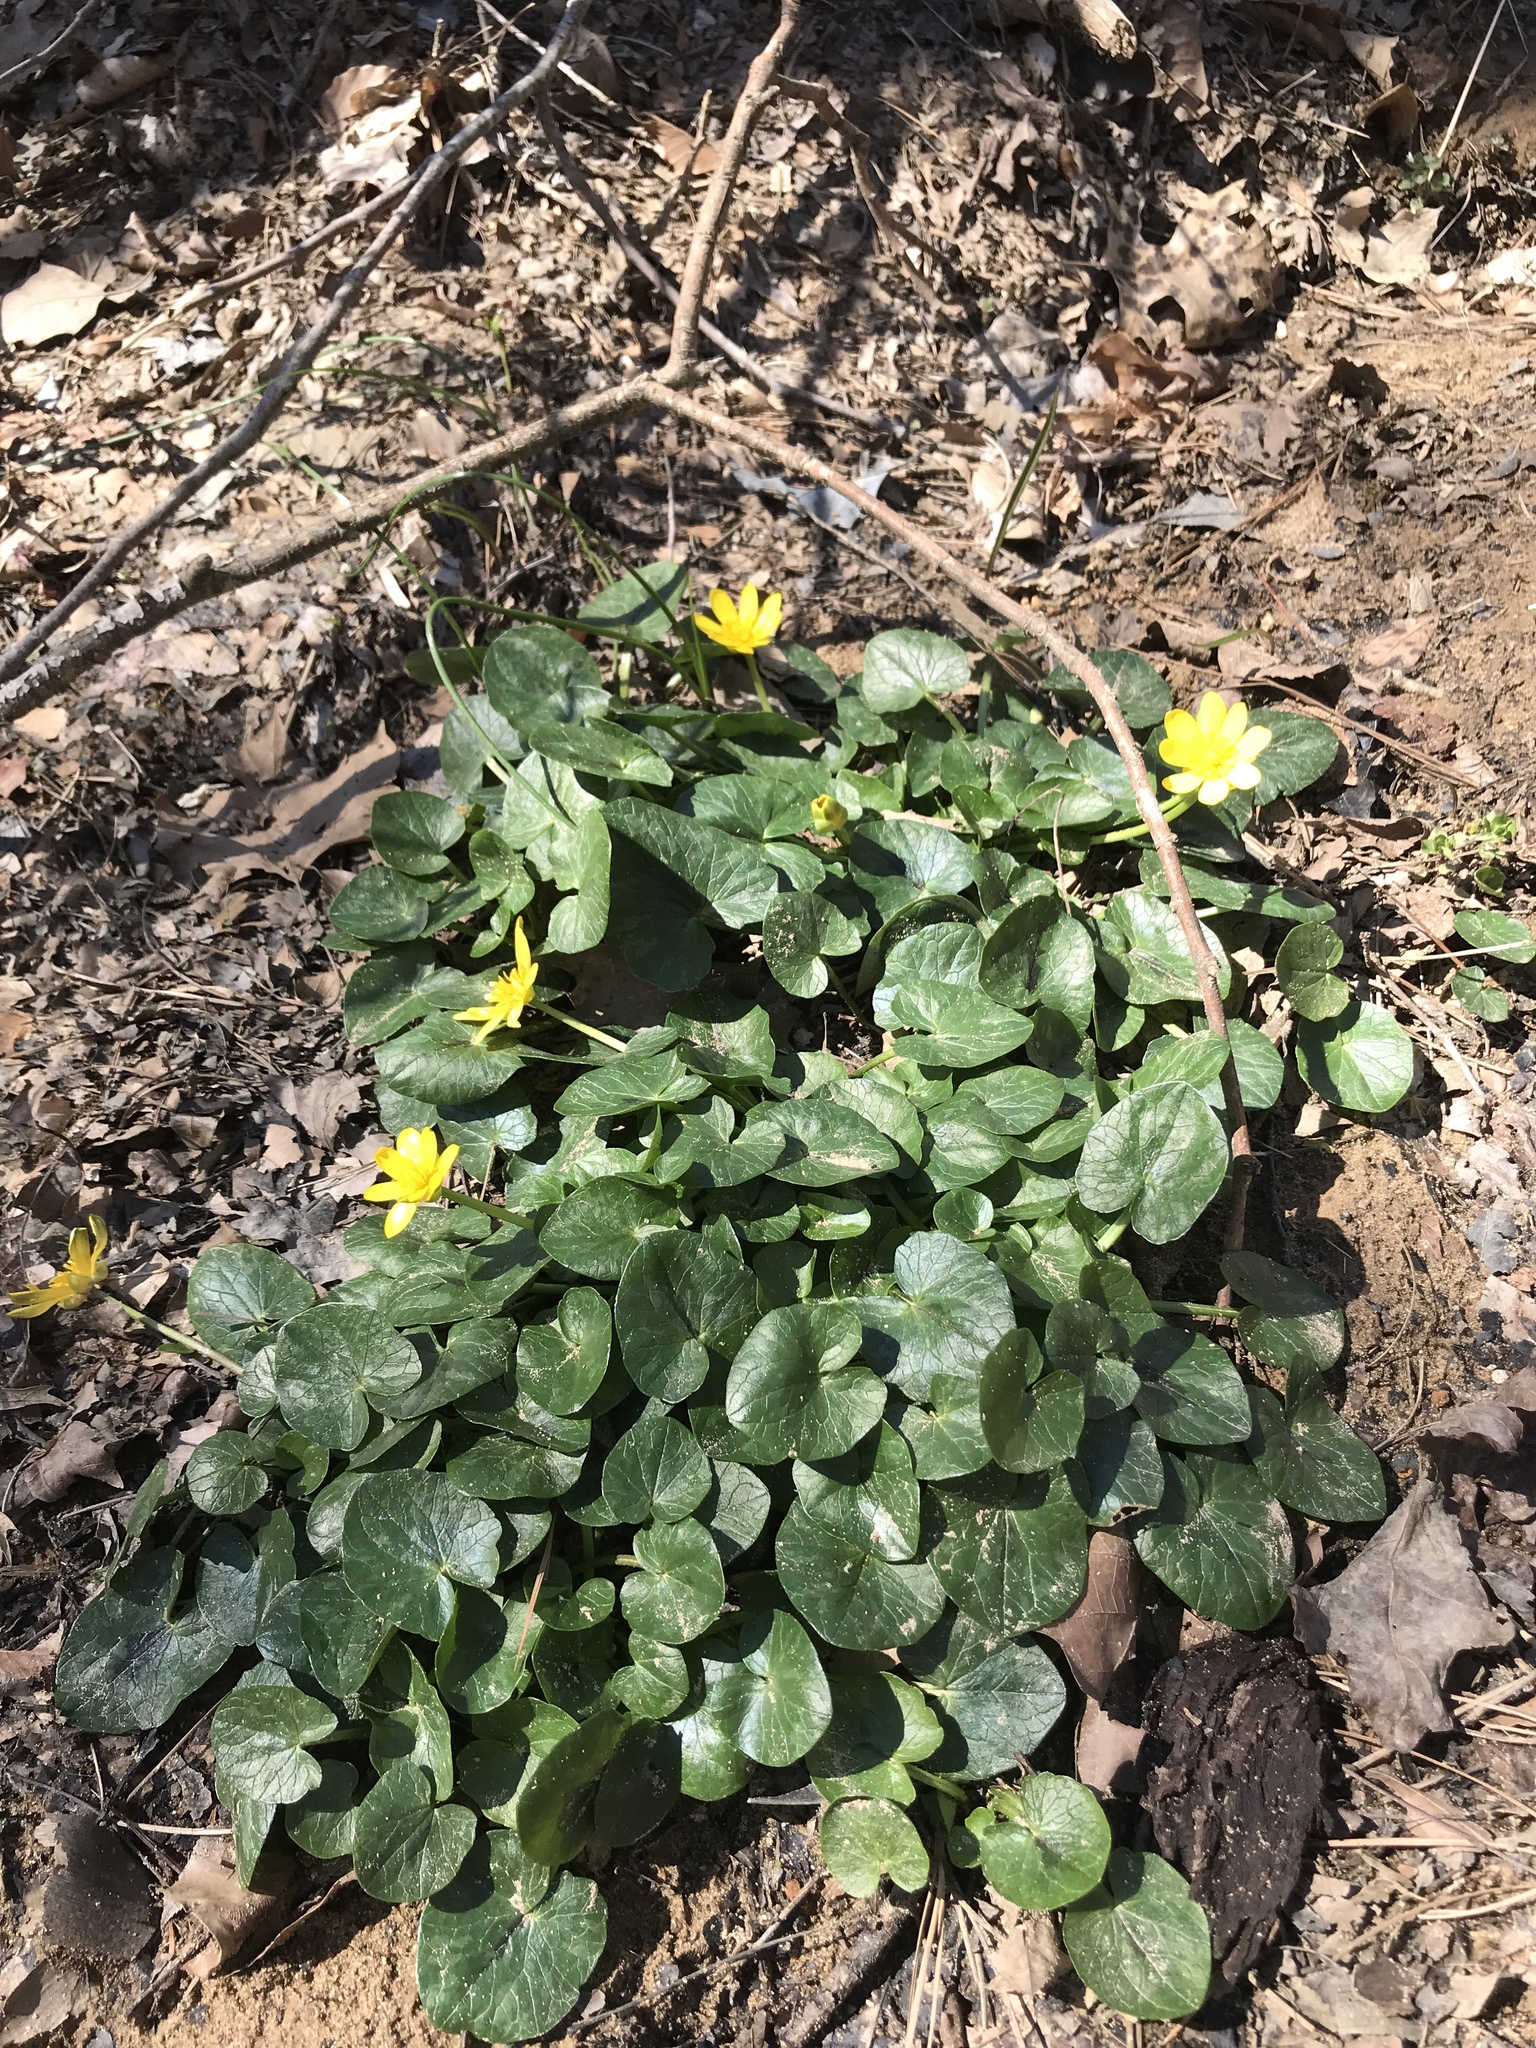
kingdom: Plantae
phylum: Tracheophyta
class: Magnoliopsida
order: Ranunculales
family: Ranunculaceae
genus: Ficaria
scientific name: Ficaria verna
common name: Lesser celandine
